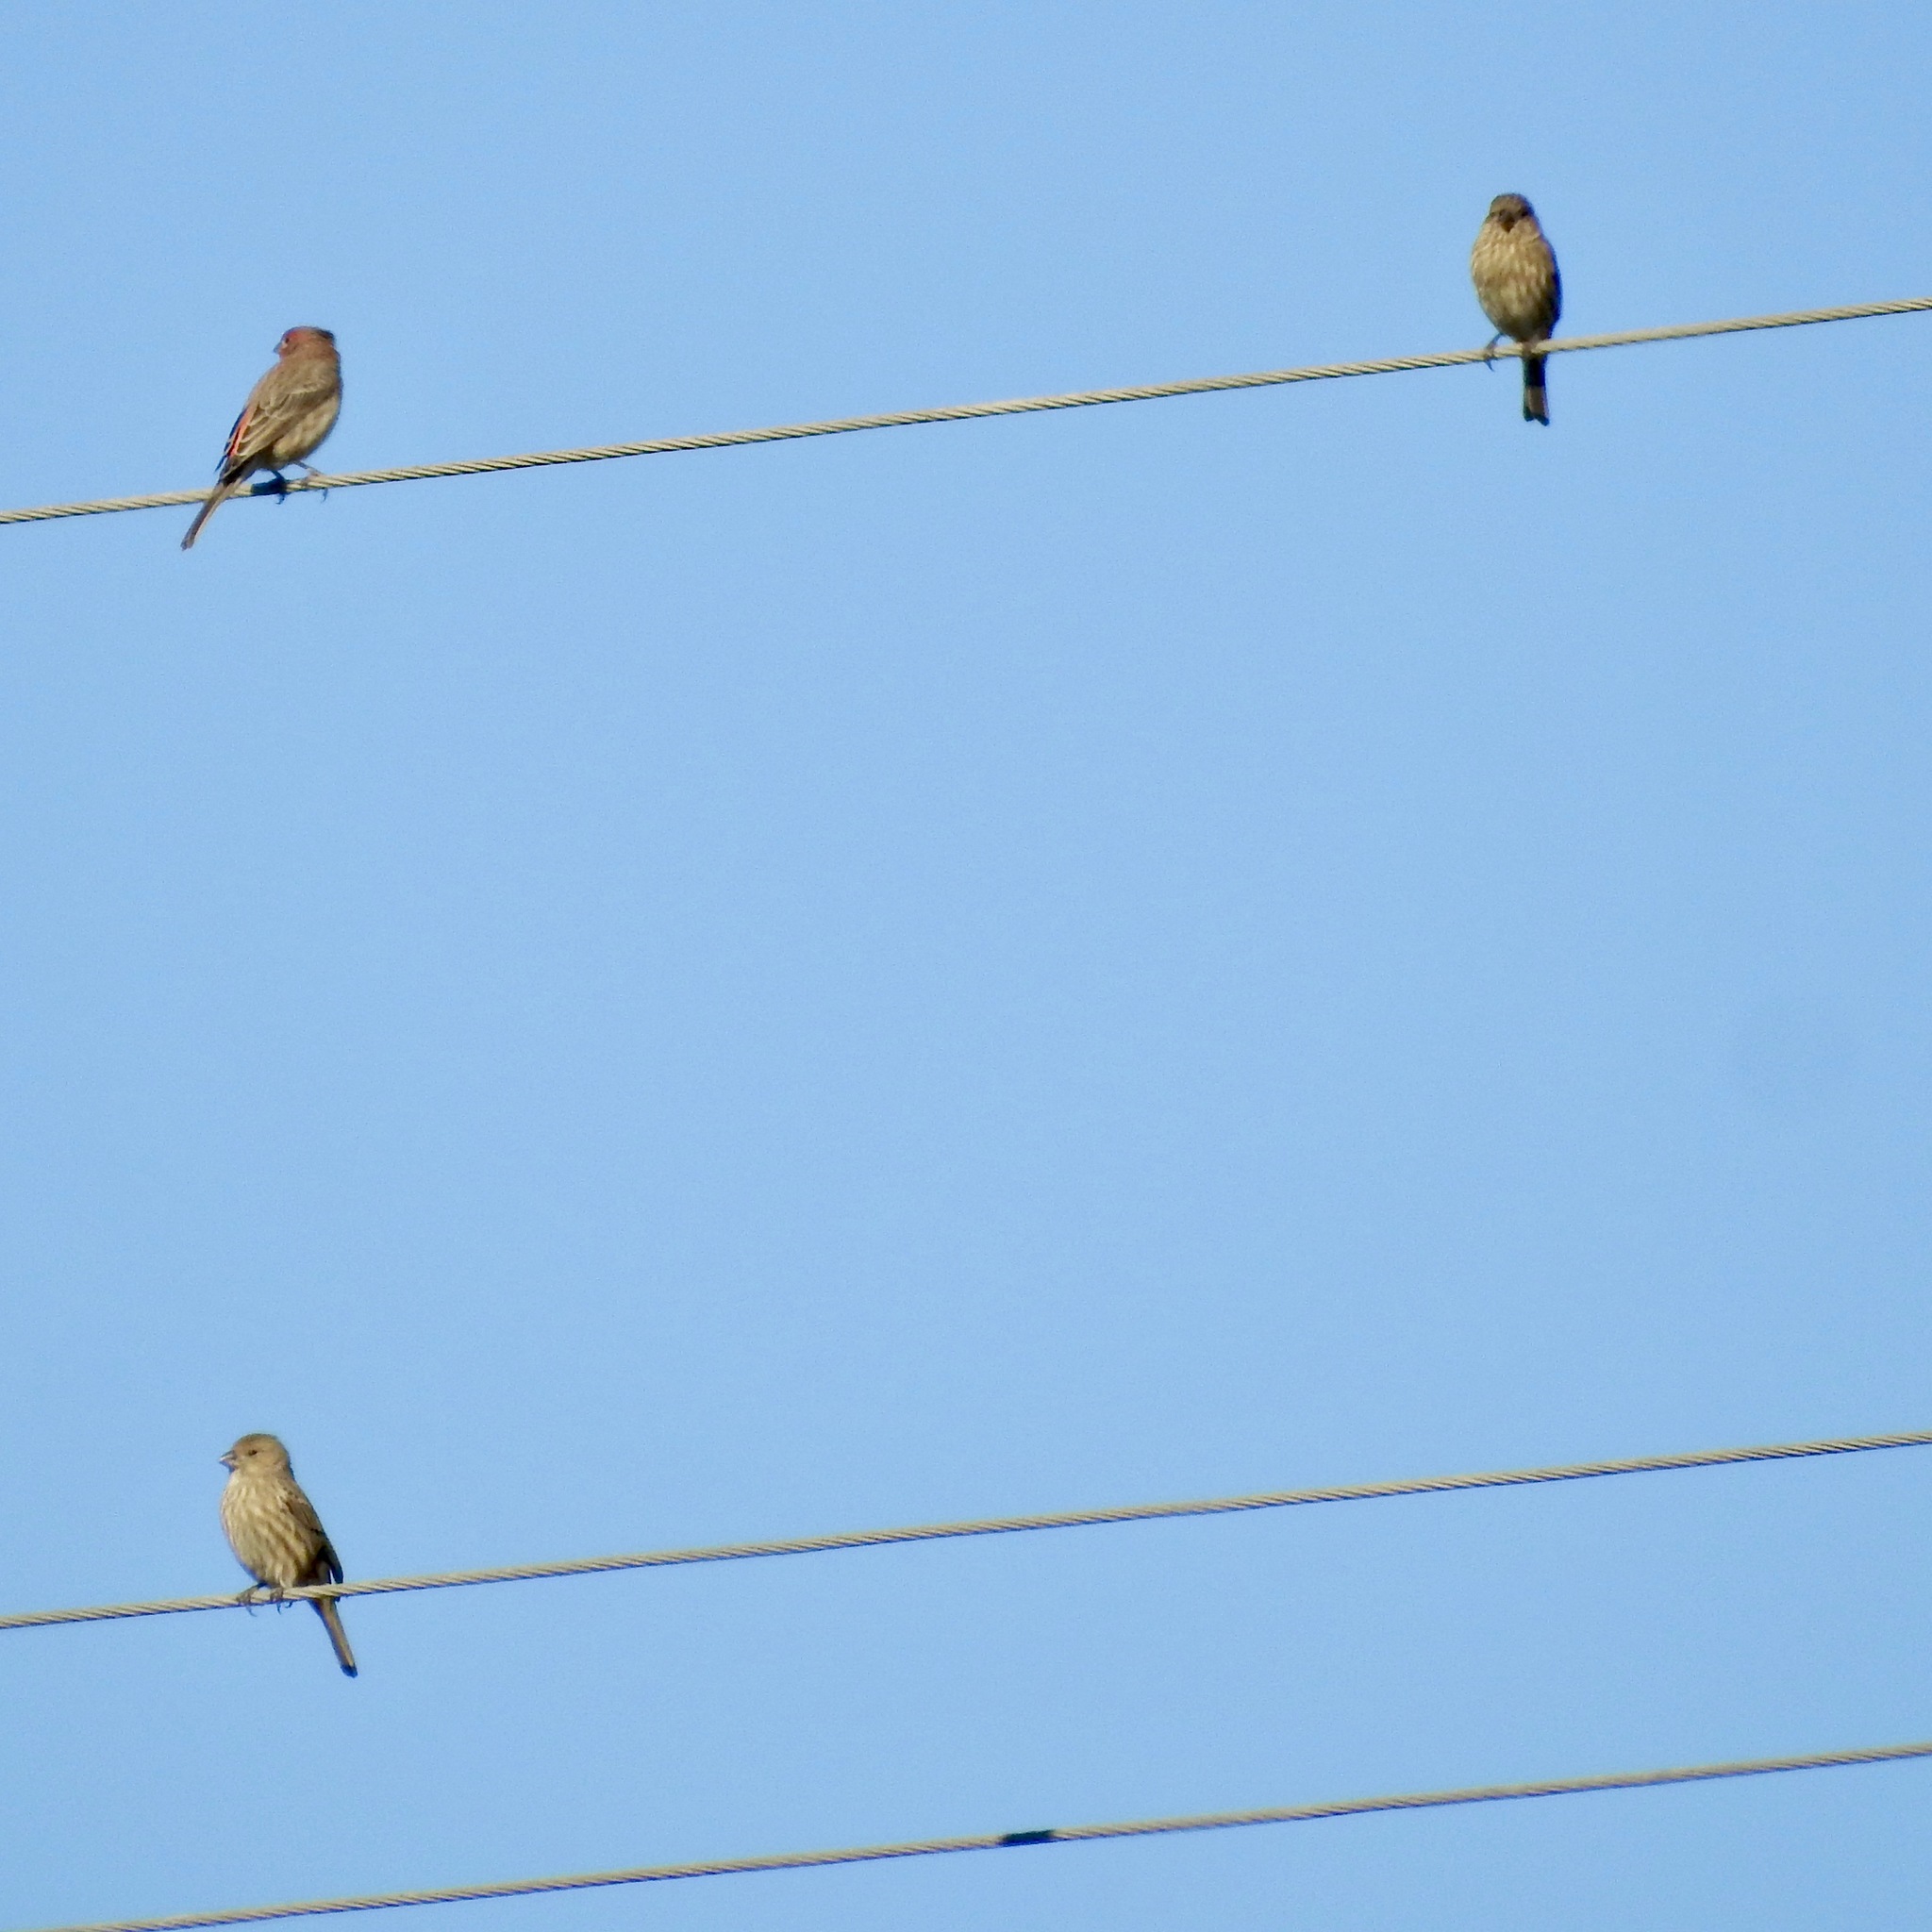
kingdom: Animalia
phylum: Chordata
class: Aves
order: Passeriformes
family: Fringillidae
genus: Haemorhous
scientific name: Haemorhous mexicanus
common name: House finch
